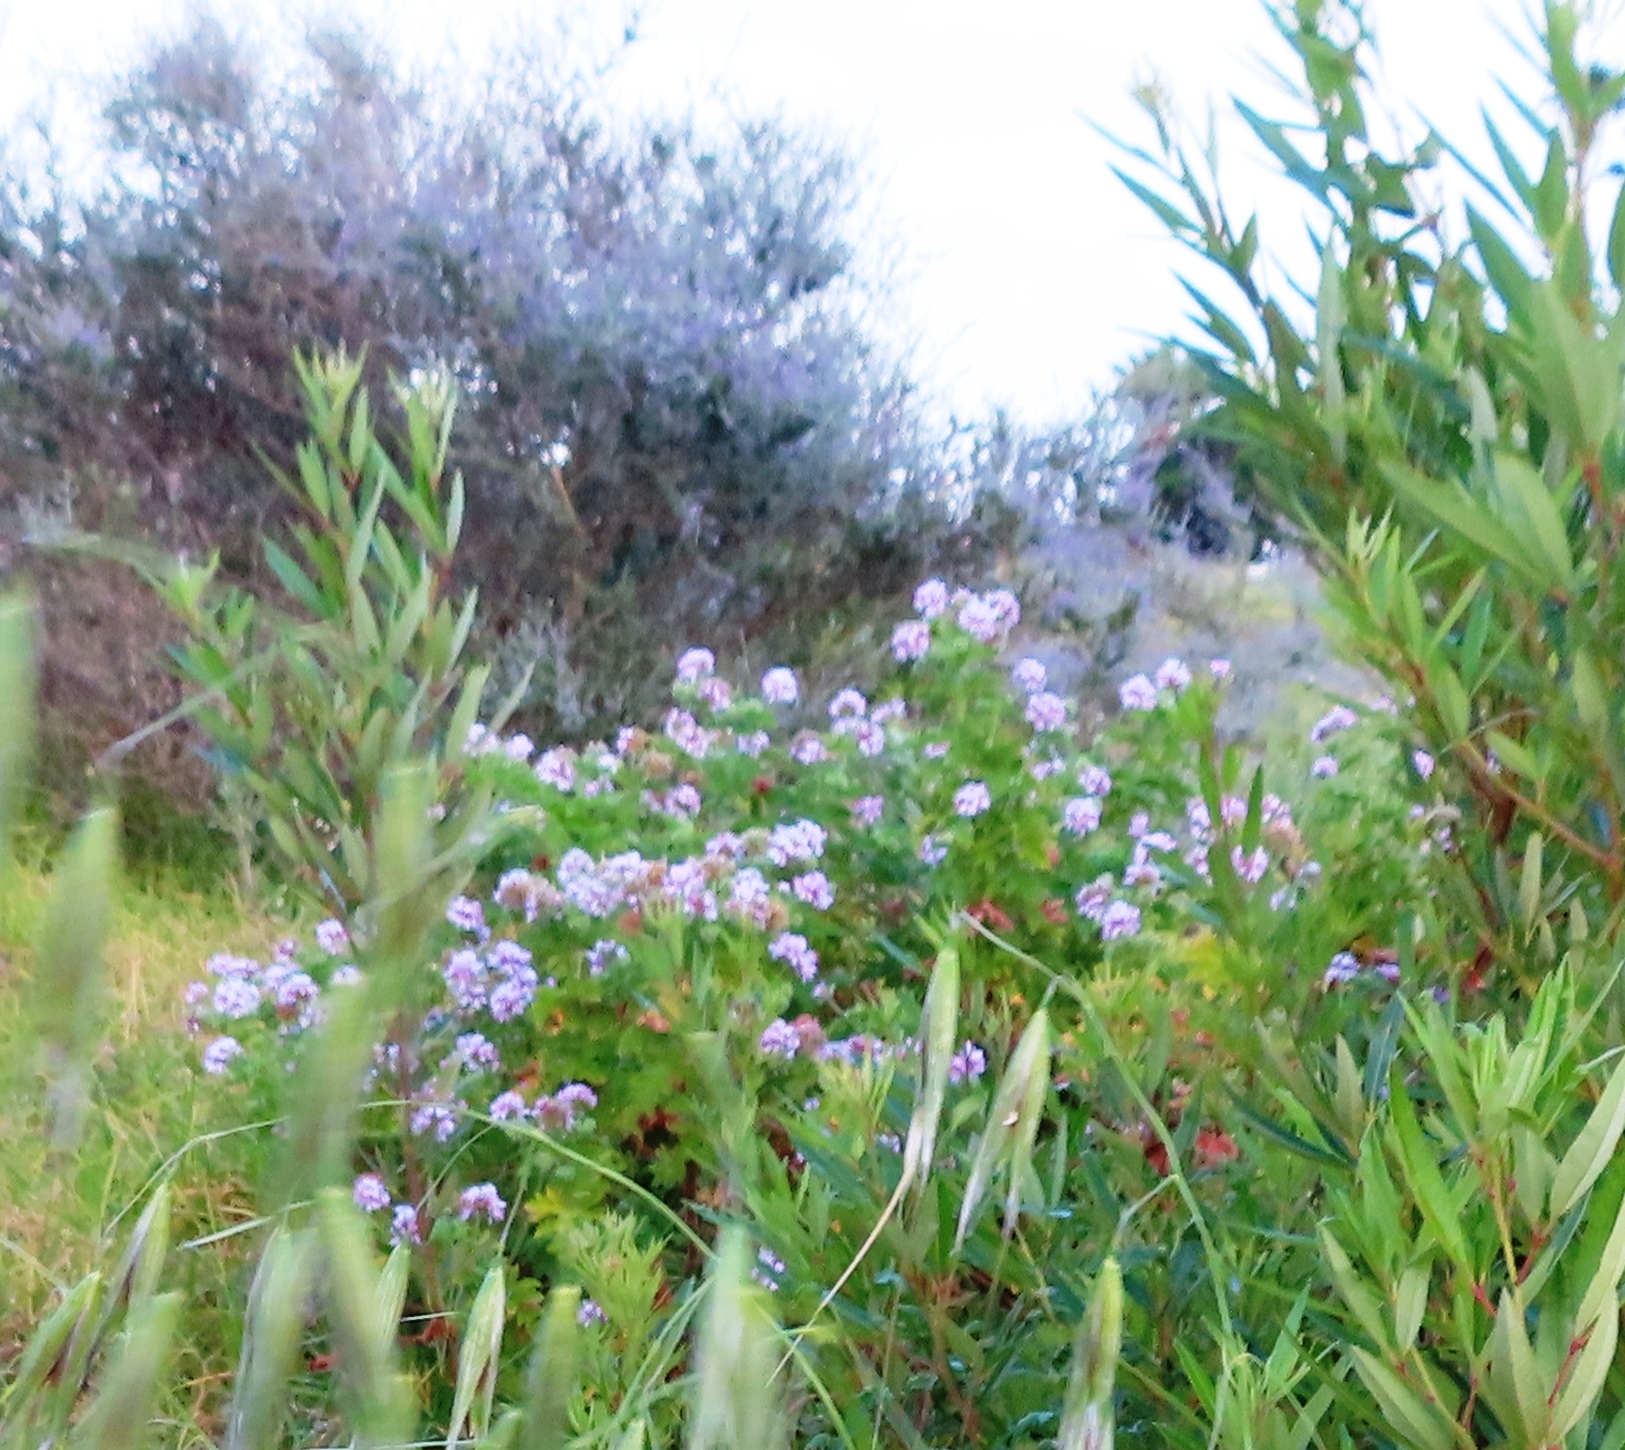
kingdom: Plantae
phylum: Tracheophyta
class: Magnoliopsida
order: Geraniales
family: Geraniaceae
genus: Pelargonium
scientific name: Pelargonium graveolens
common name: Rose-scent geranium
